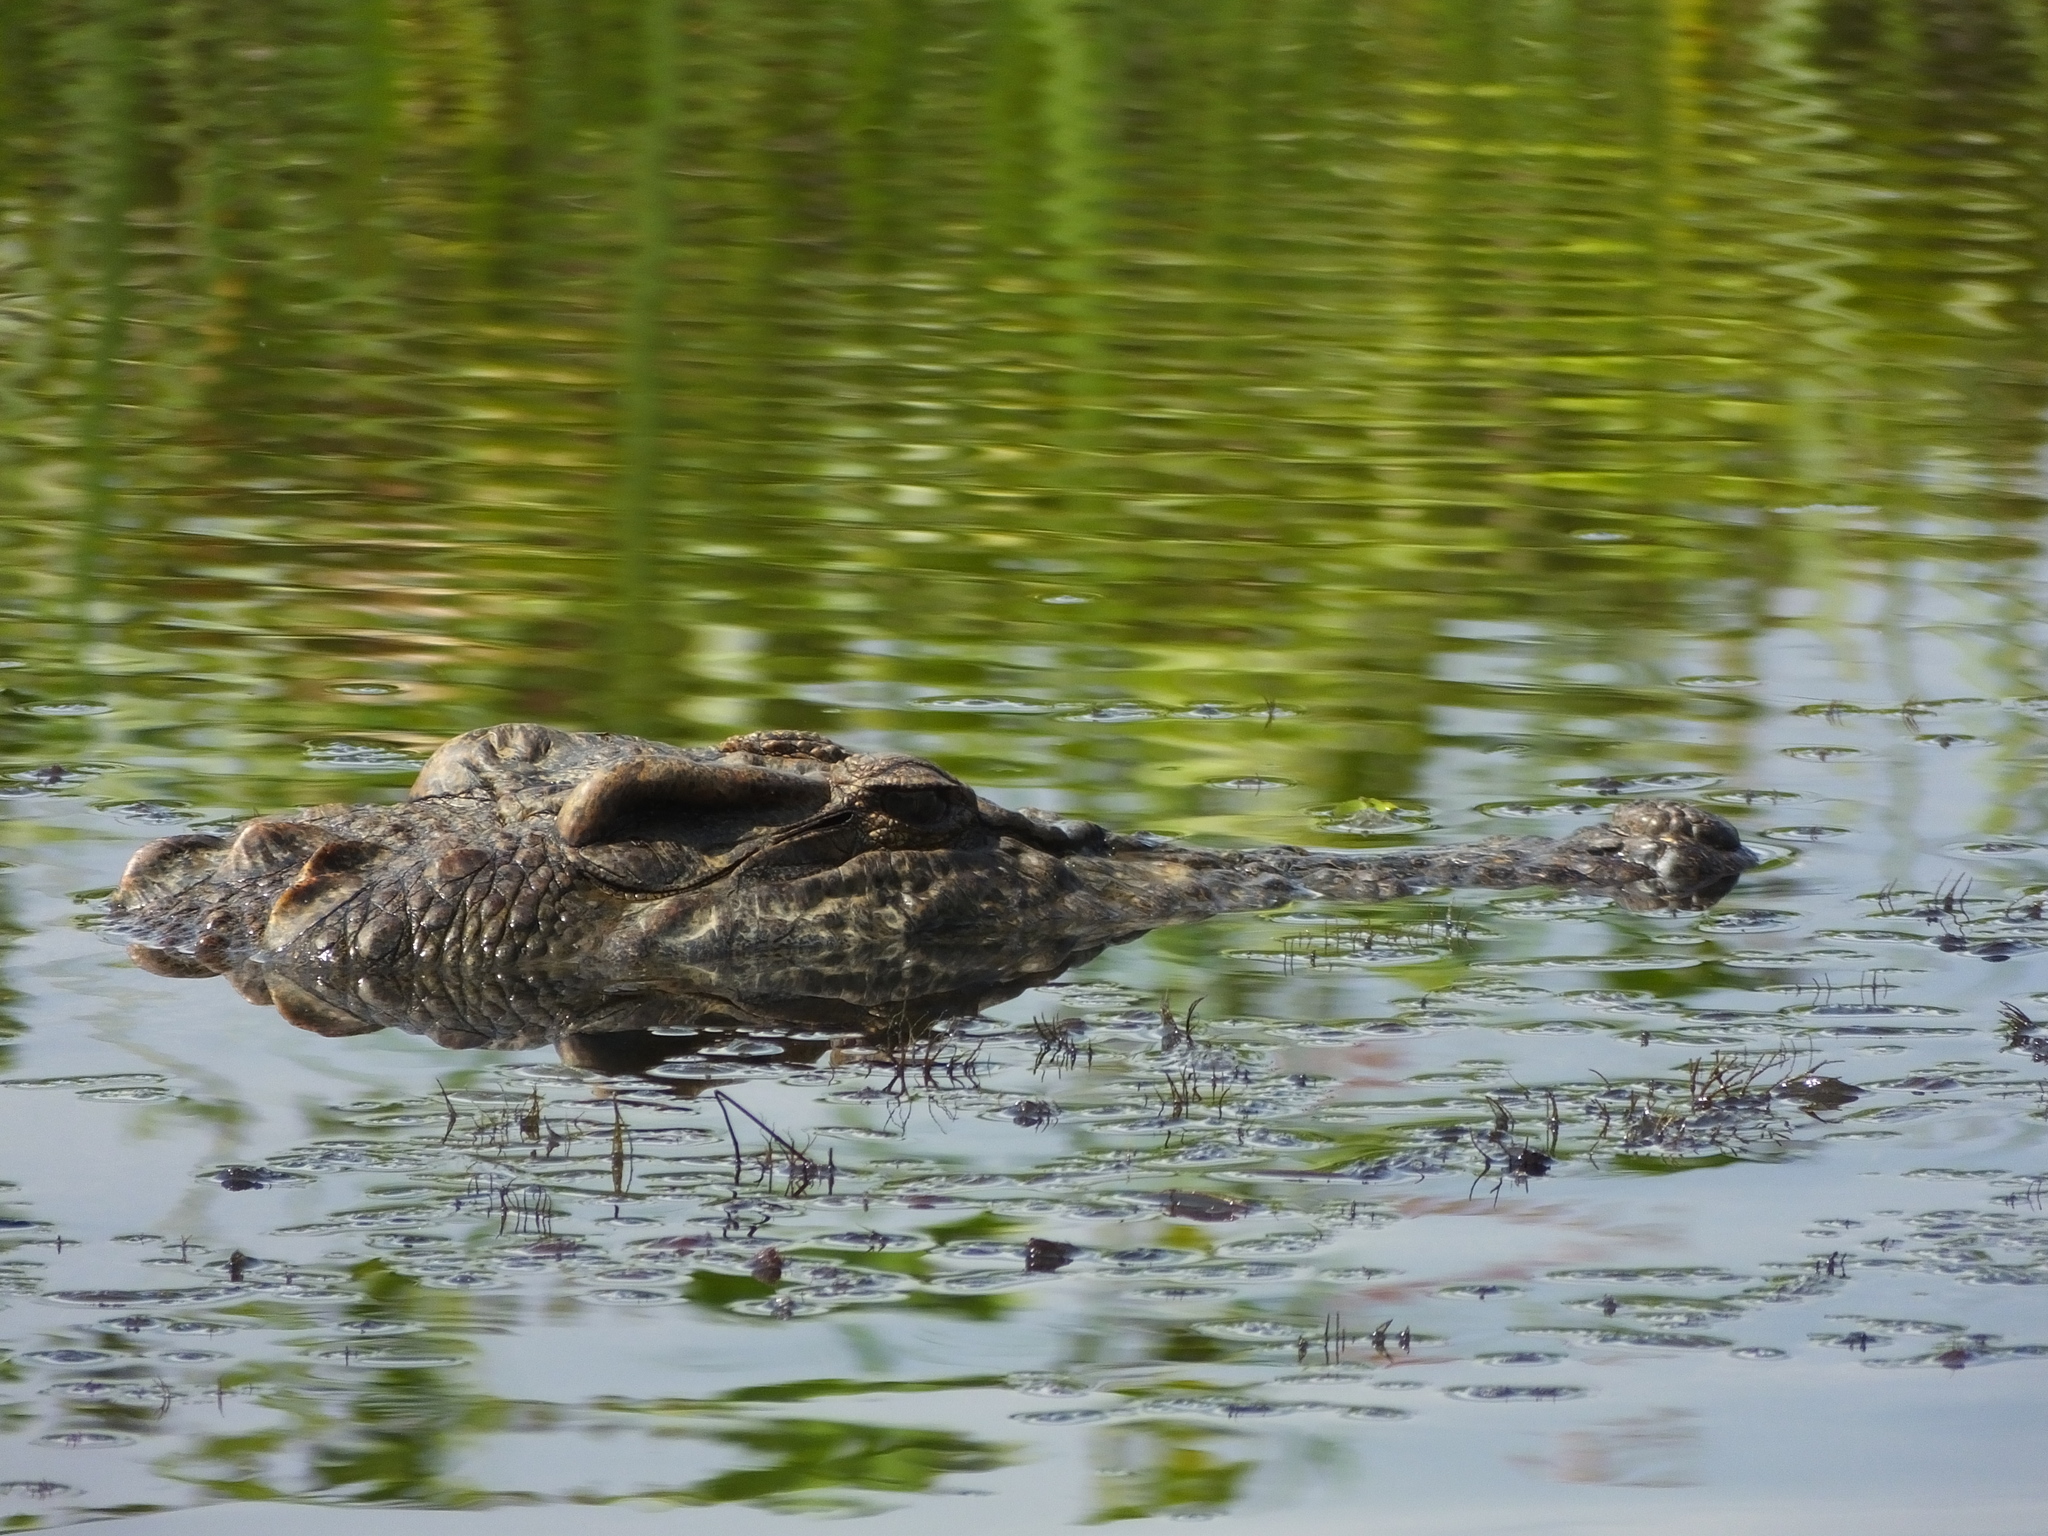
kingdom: Animalia
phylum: Chordata
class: Crocodylia
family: Crocodylidae
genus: Crocodylus
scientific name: Crocodylus siamensis
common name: Siamese crocodile
